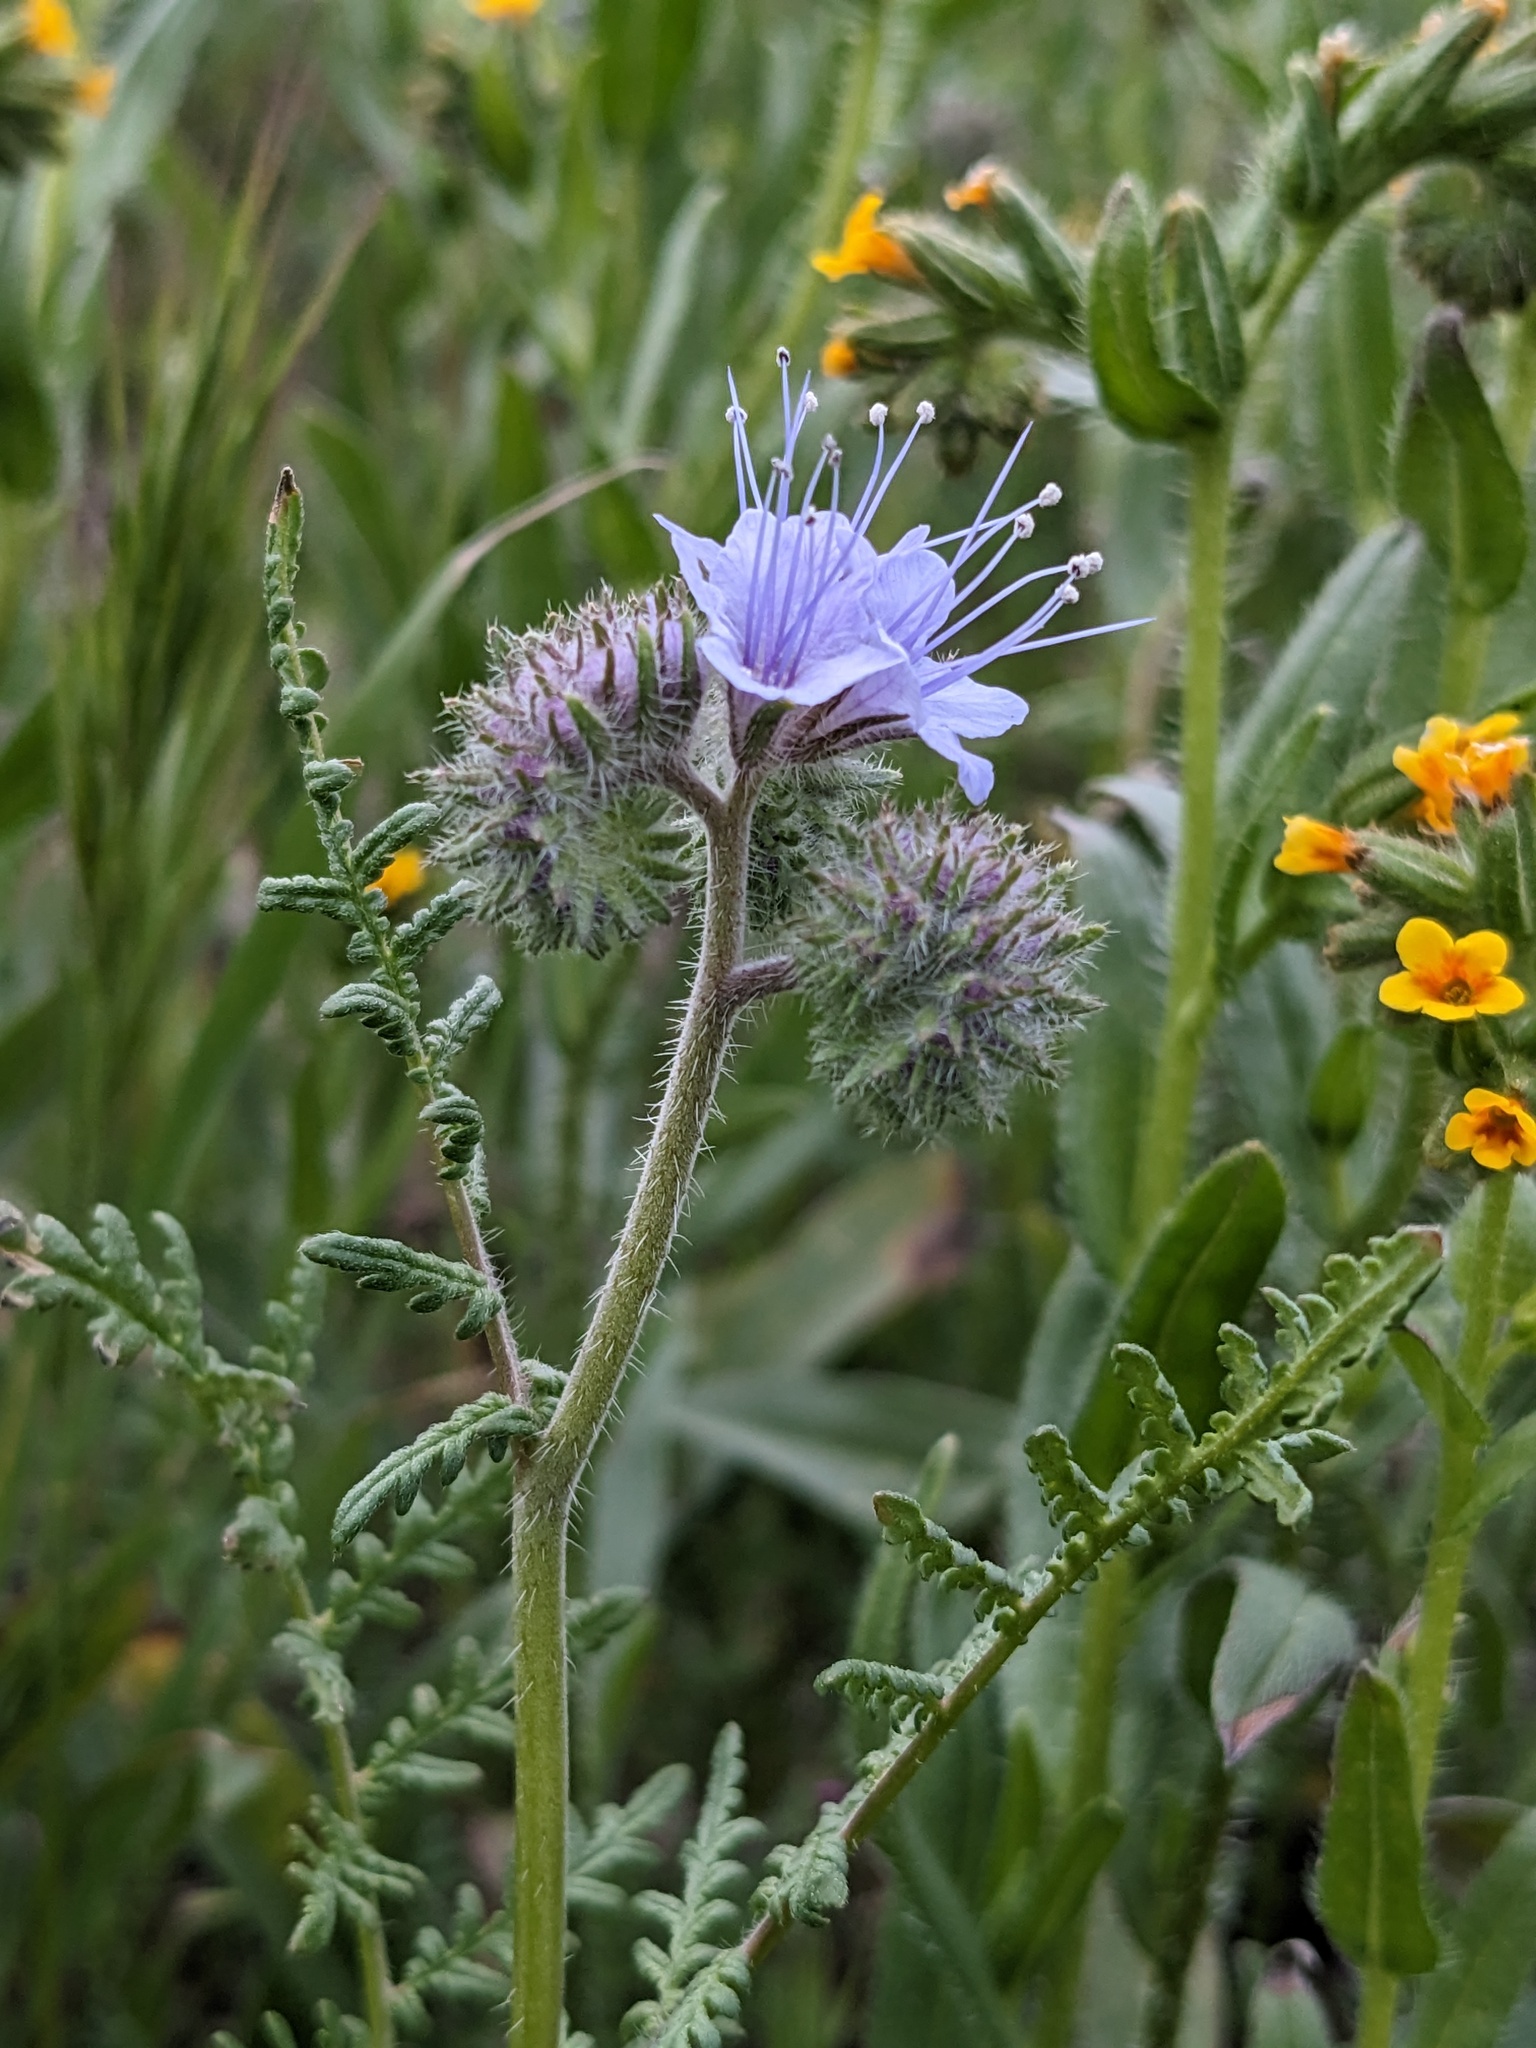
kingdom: Plantae
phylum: Tracheophyta
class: Magnoliopsida
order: Boraginales
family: Hydrophyllaceae
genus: Phacelia
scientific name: Phacelia tanacetifolia
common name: Phacelia
